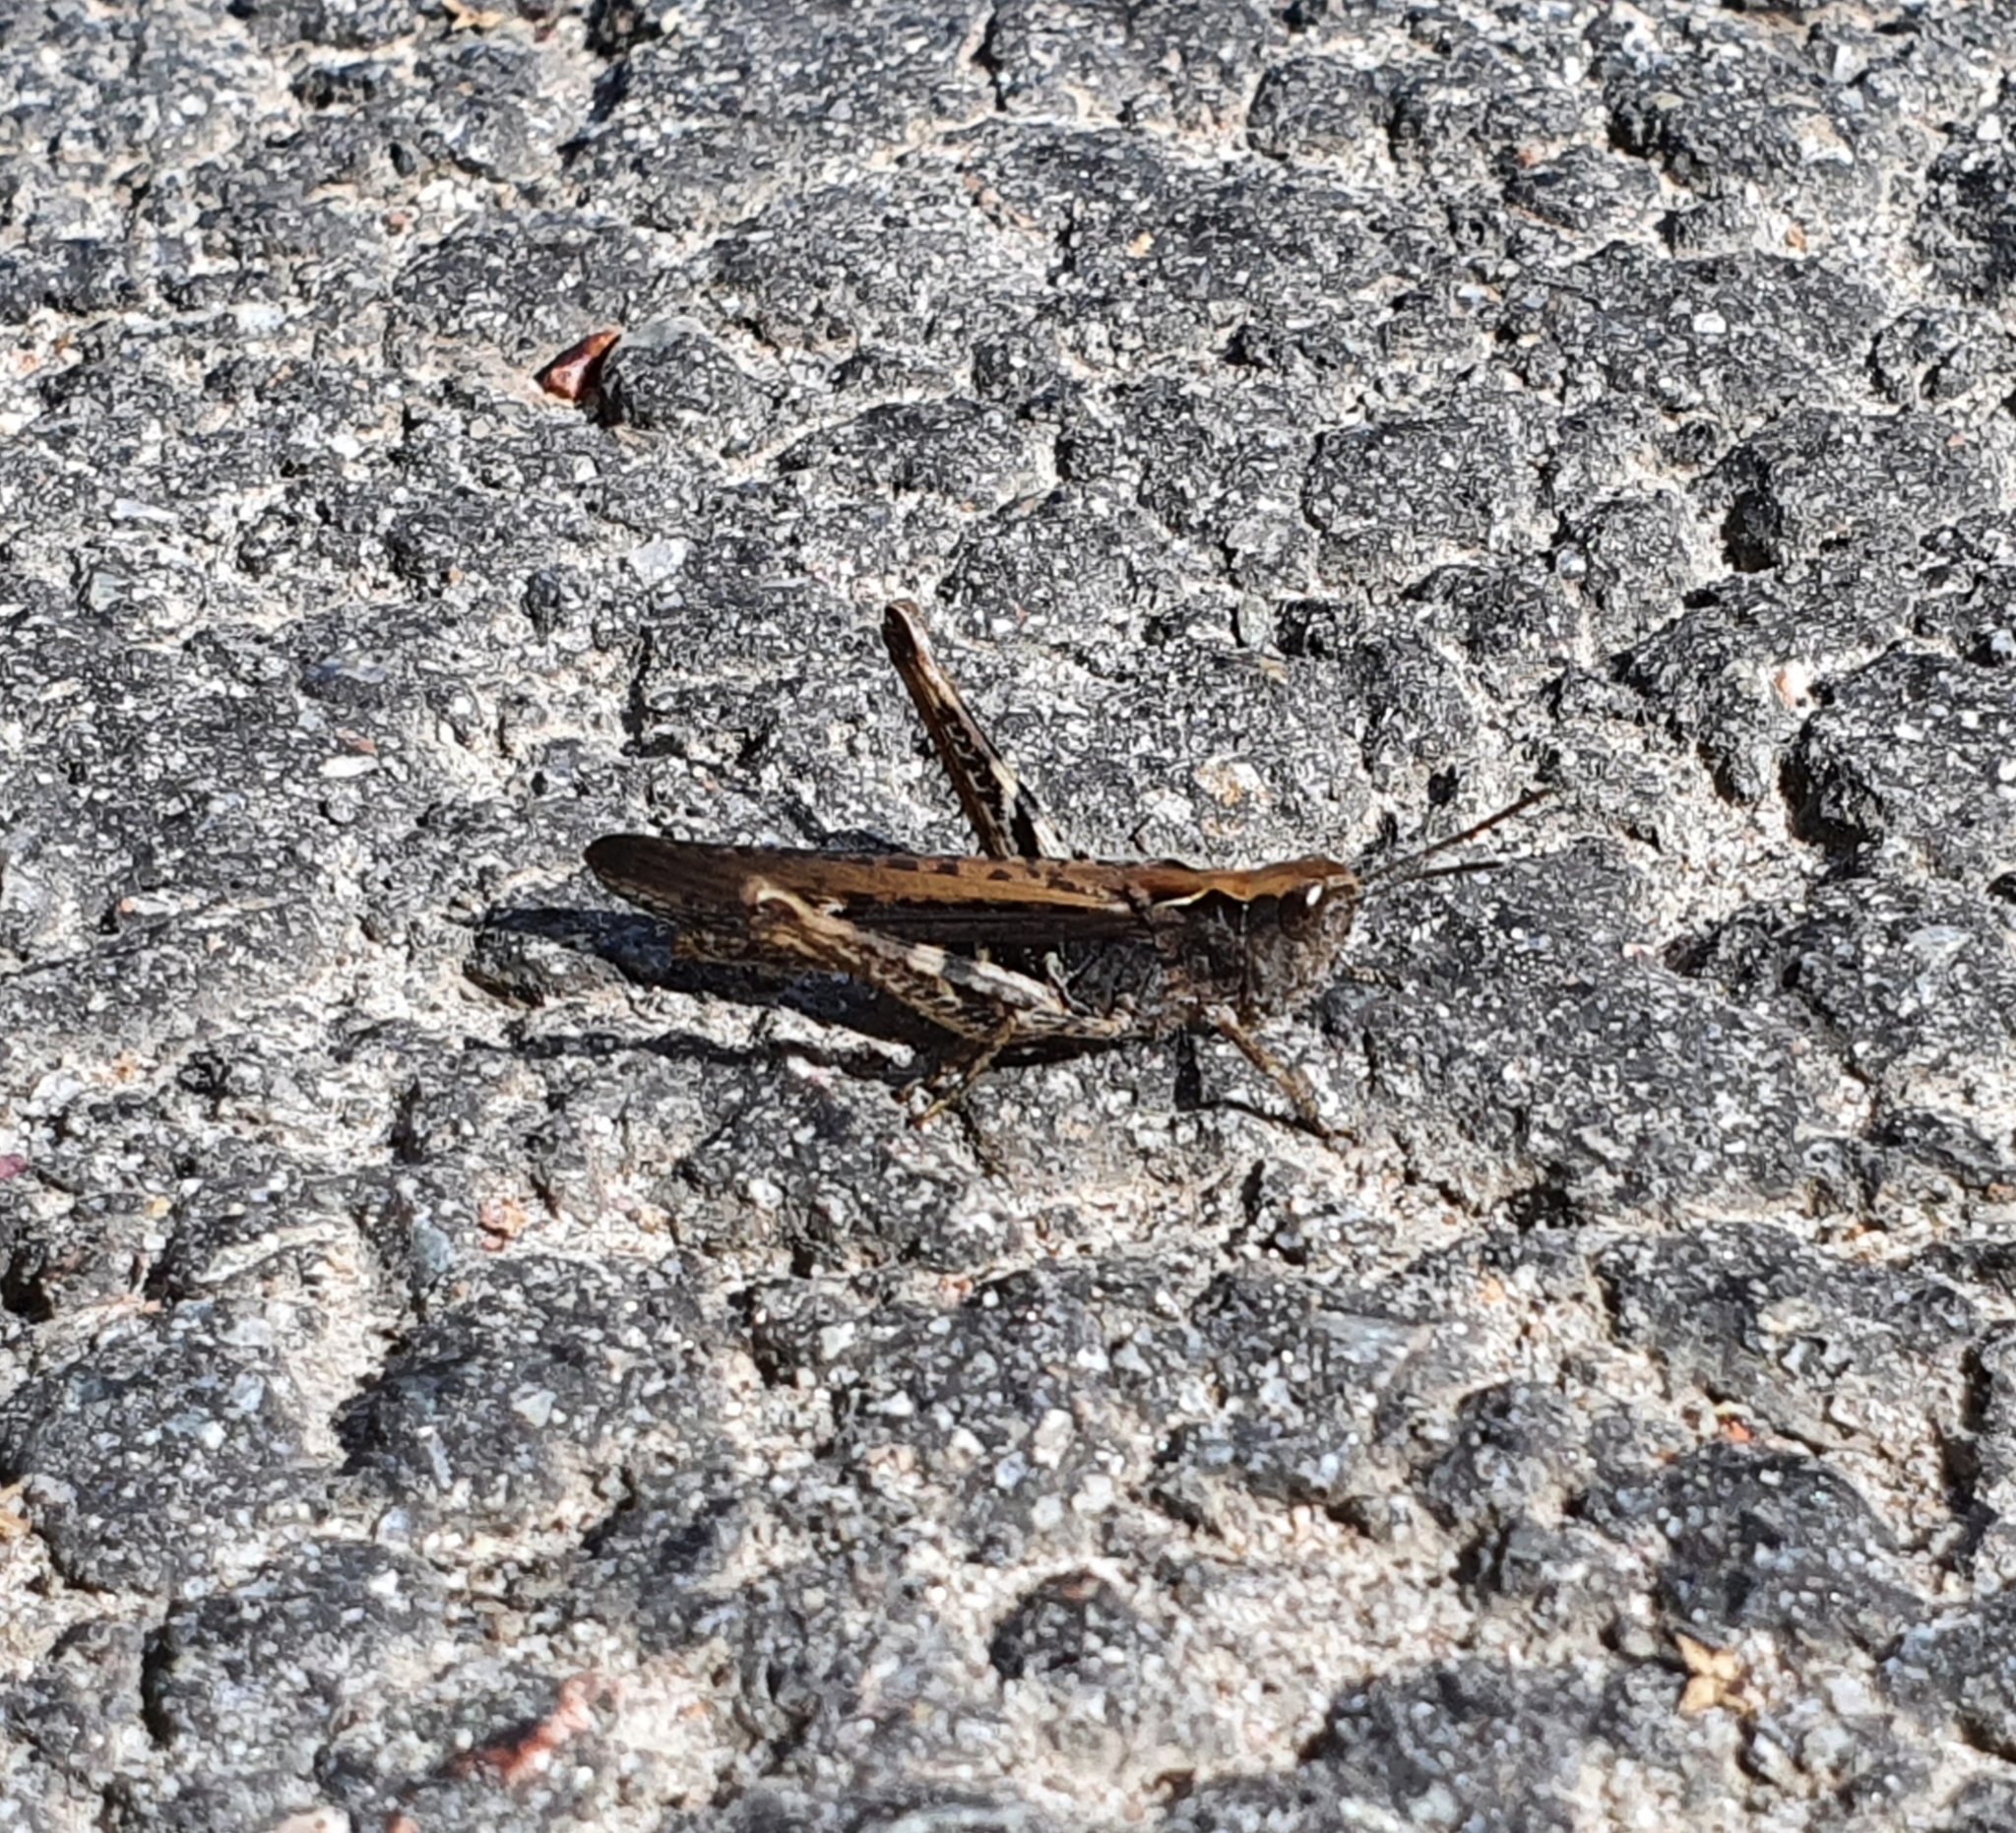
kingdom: Animalia
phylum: Arthropoda
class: Insecta
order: Orthoptera
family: Acrididae
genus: Chorthippus
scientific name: Chorthippus brunneus
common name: Field grasshopper
